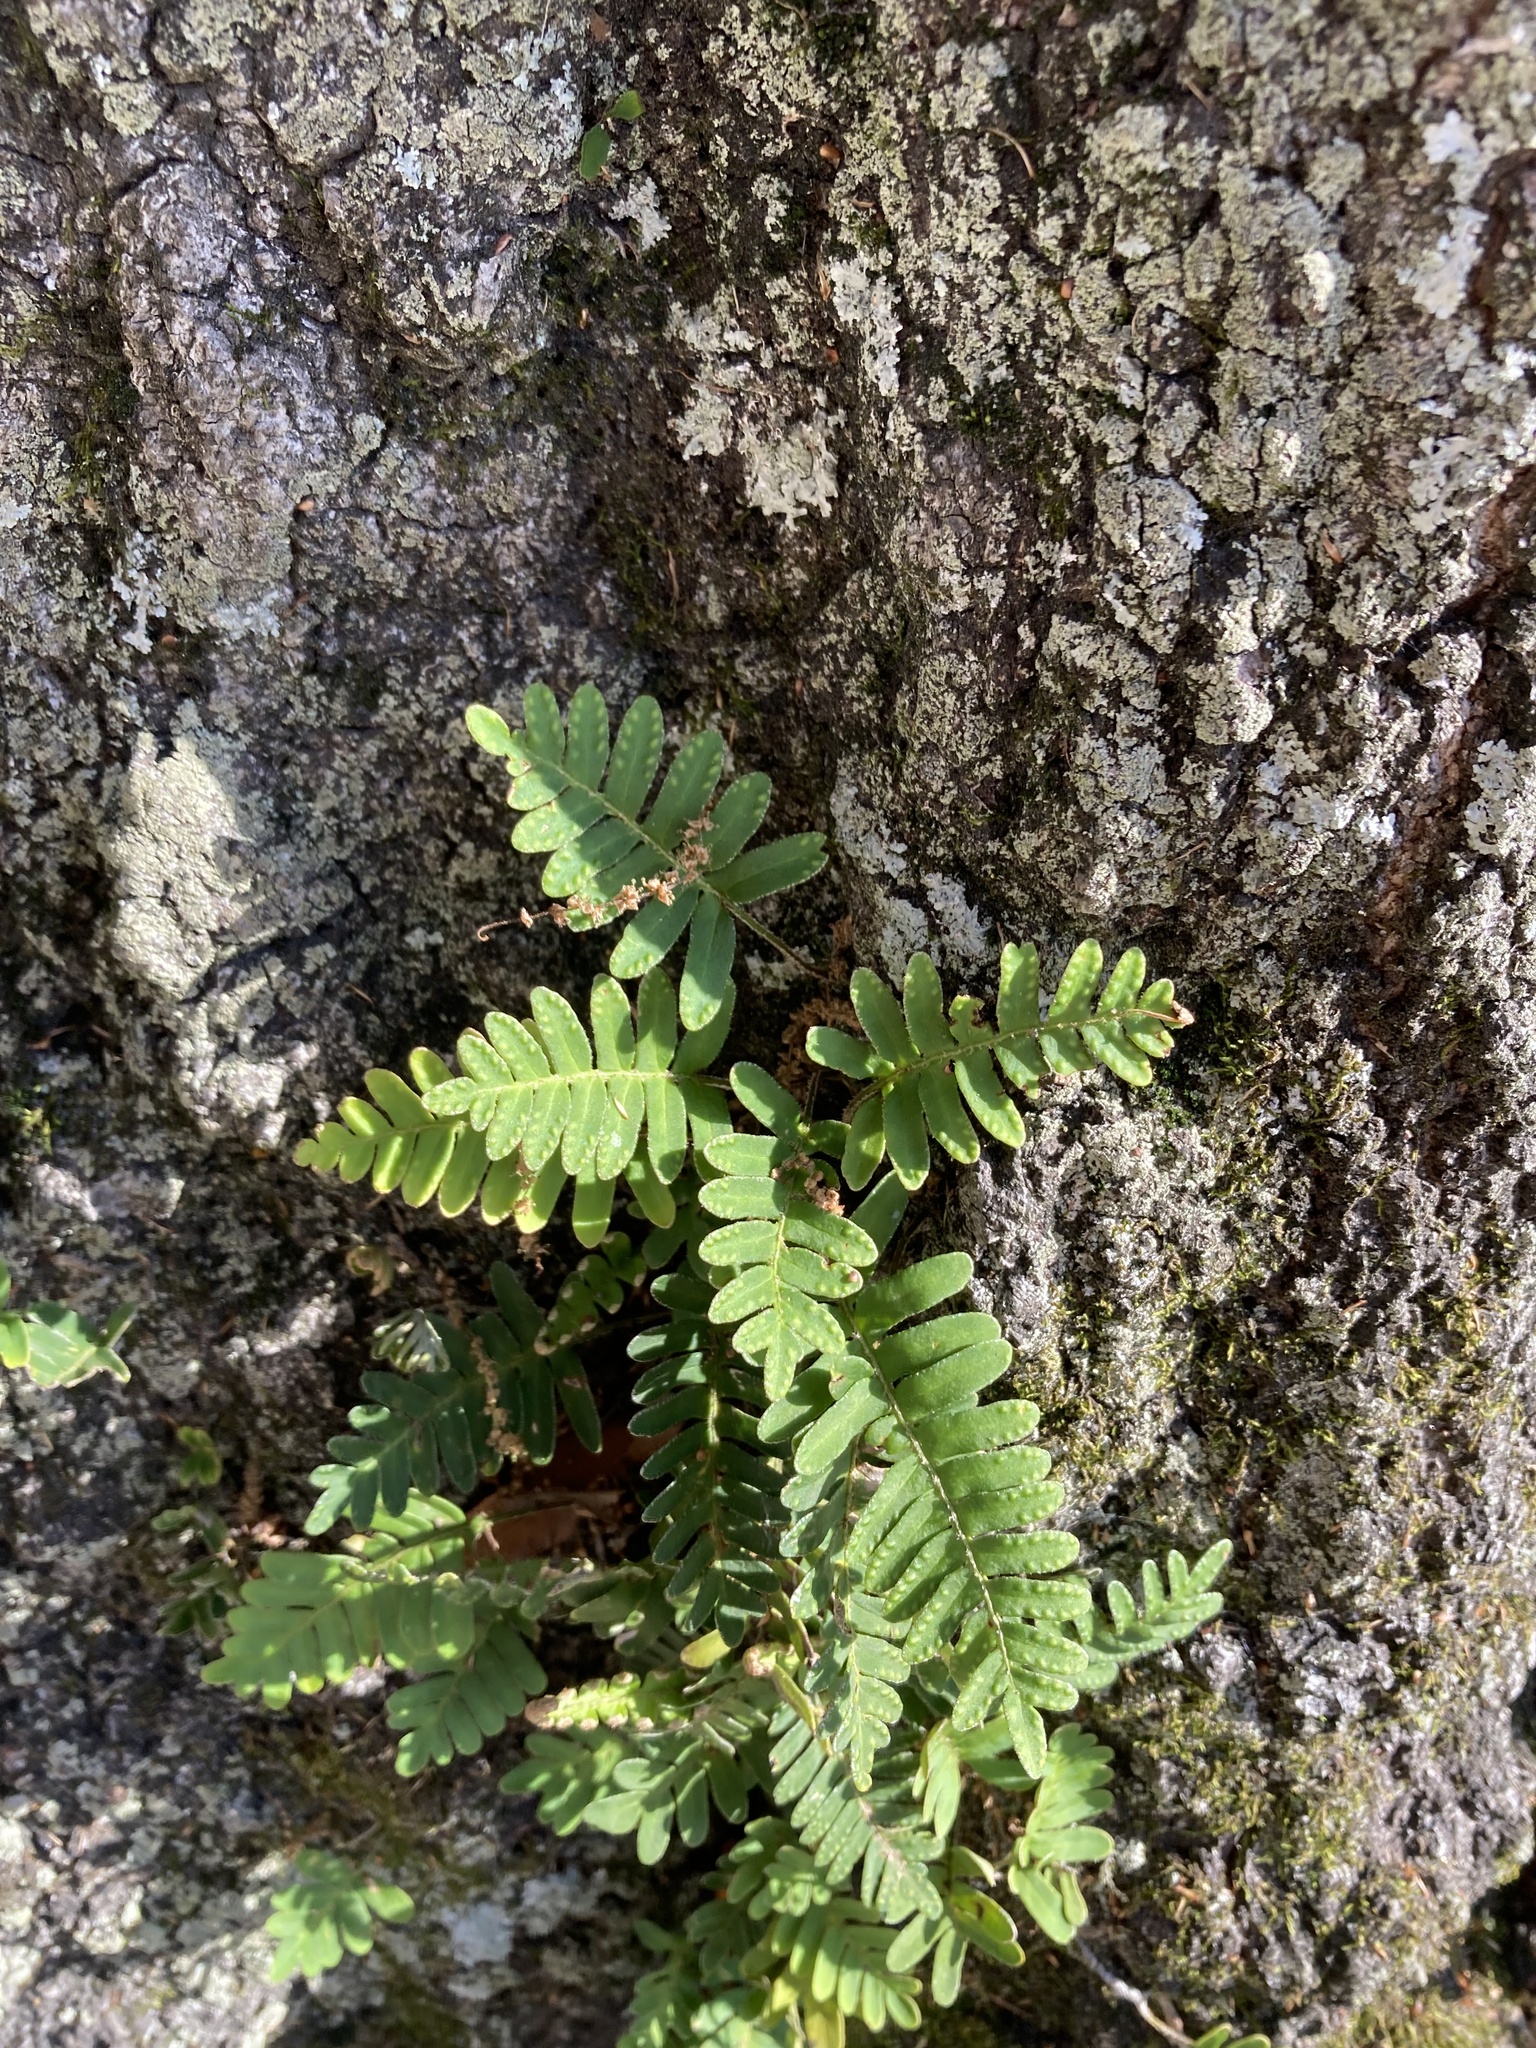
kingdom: Plantae
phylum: Tracheophyta
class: Polypodiopsida
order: Polypodiales
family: Polypodiaceae
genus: Pleopeltis
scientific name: Pleopeltis michauxiana
